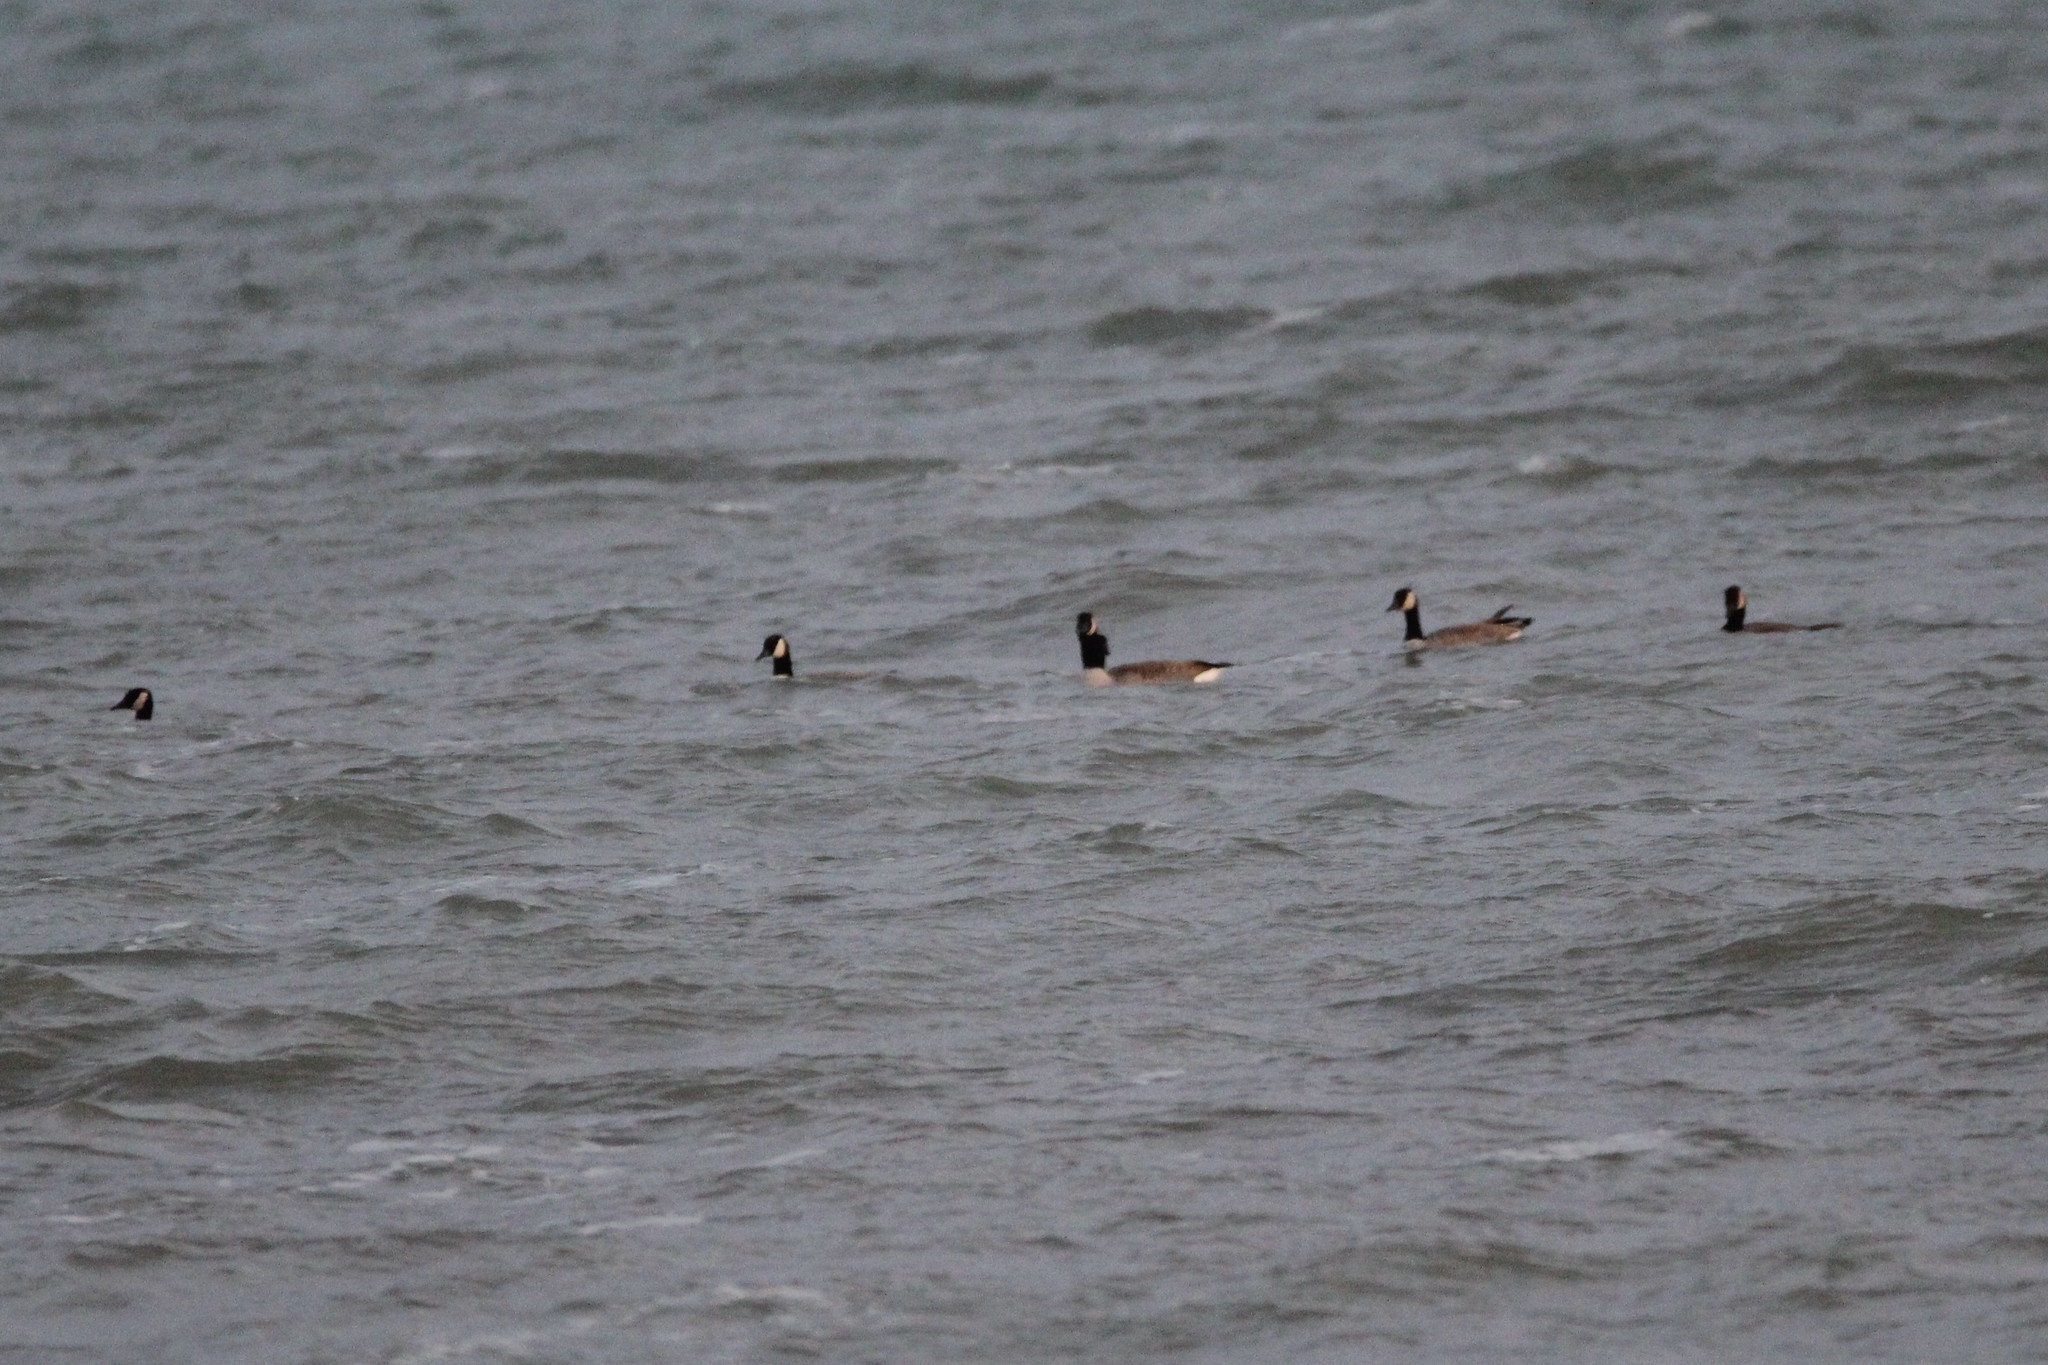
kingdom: Animalia
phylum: Chordata
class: Aves
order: Anseriformes
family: Anatidae
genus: Branta
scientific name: Branta canadensis
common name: Canada goose
